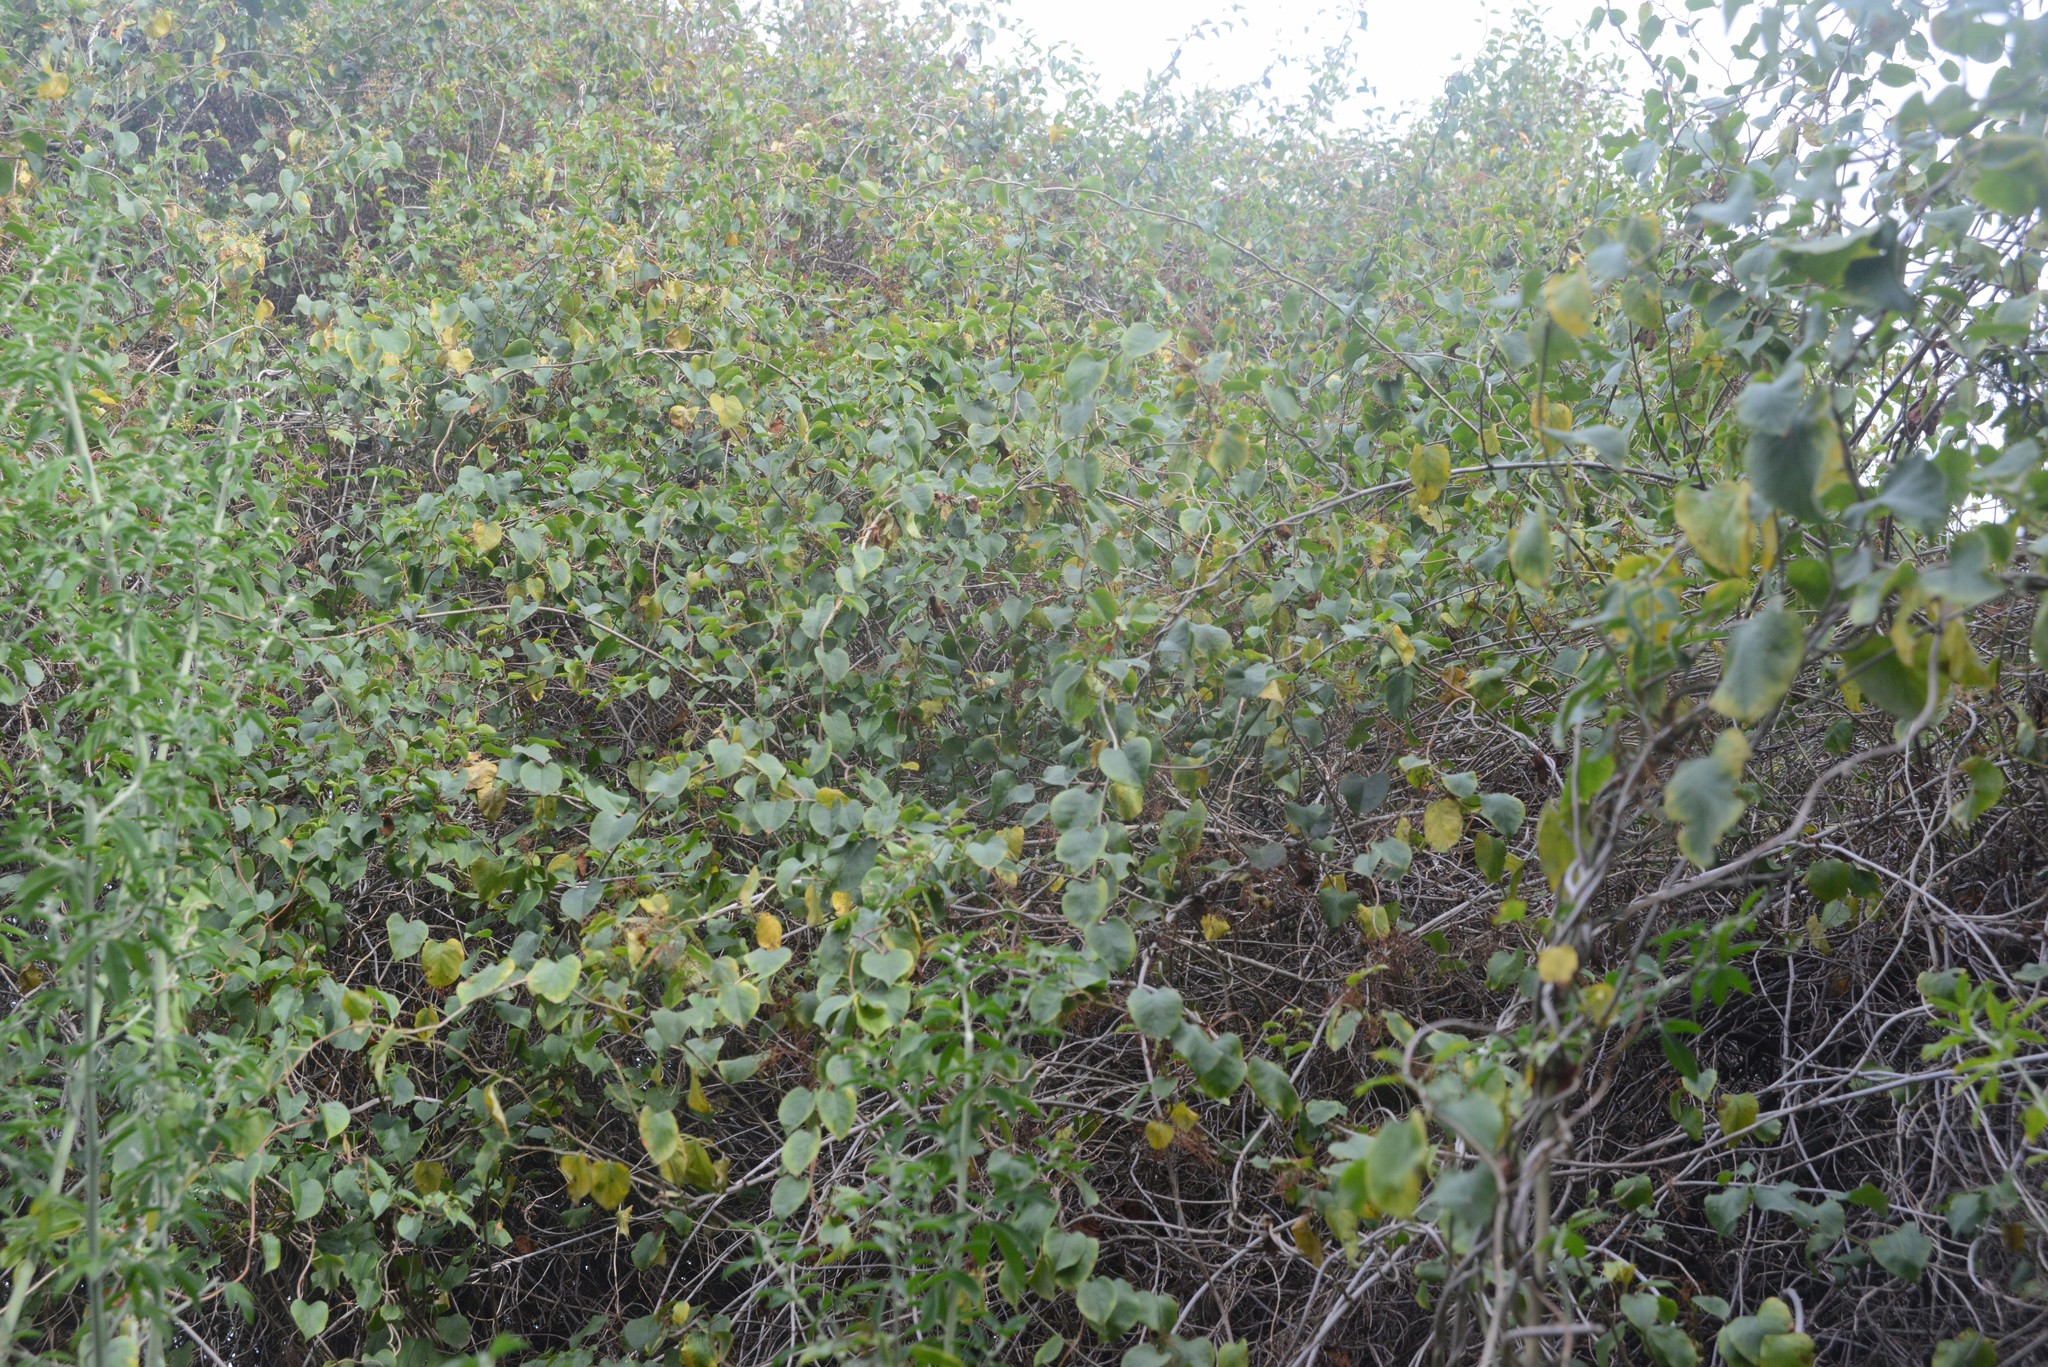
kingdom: Plantae
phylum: Tracheophyta
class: Magnoliopsida
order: Caryophyllales
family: Polygonaceae
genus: Muehlenbeckia
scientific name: Muehlenbeckia australis
